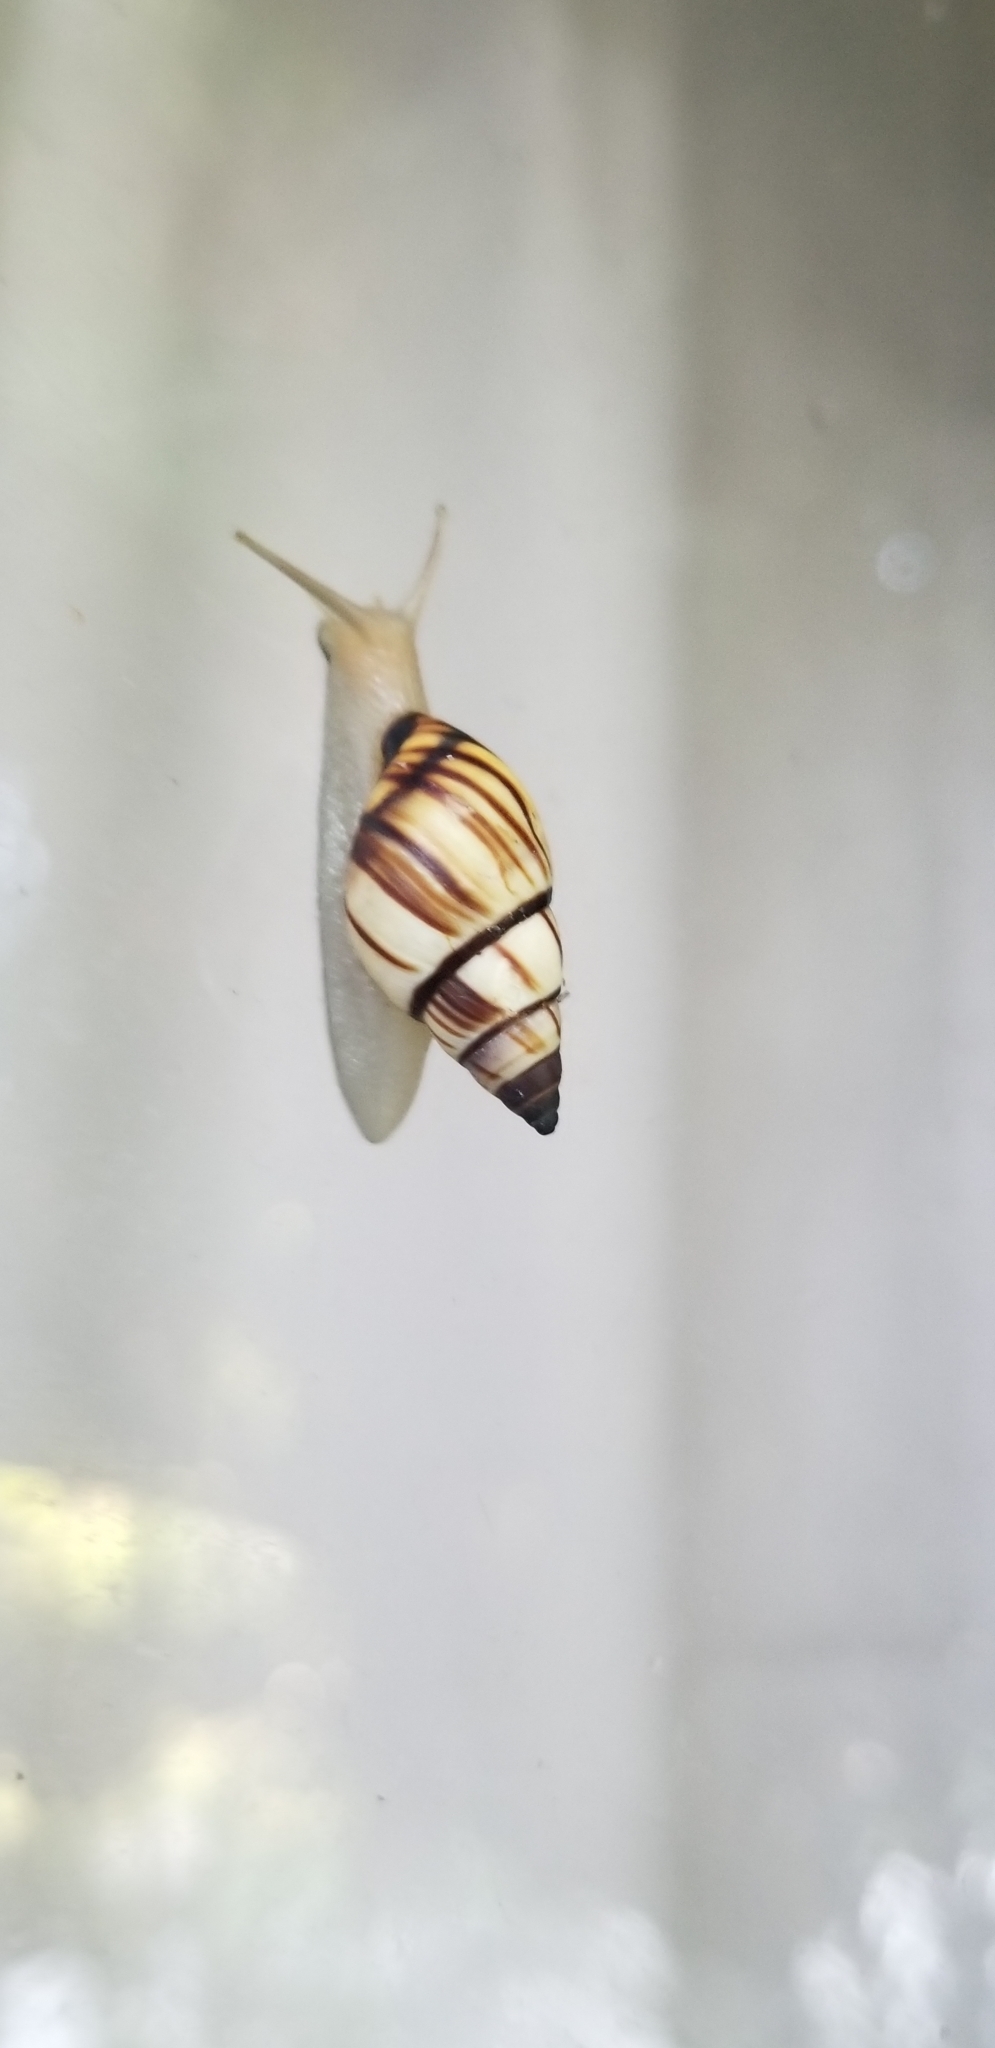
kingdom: Animalia
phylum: Mollusca
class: Gastropoda
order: Stylommatophora
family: Bulimulidae
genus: Drymaeus
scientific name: Drymaeus
